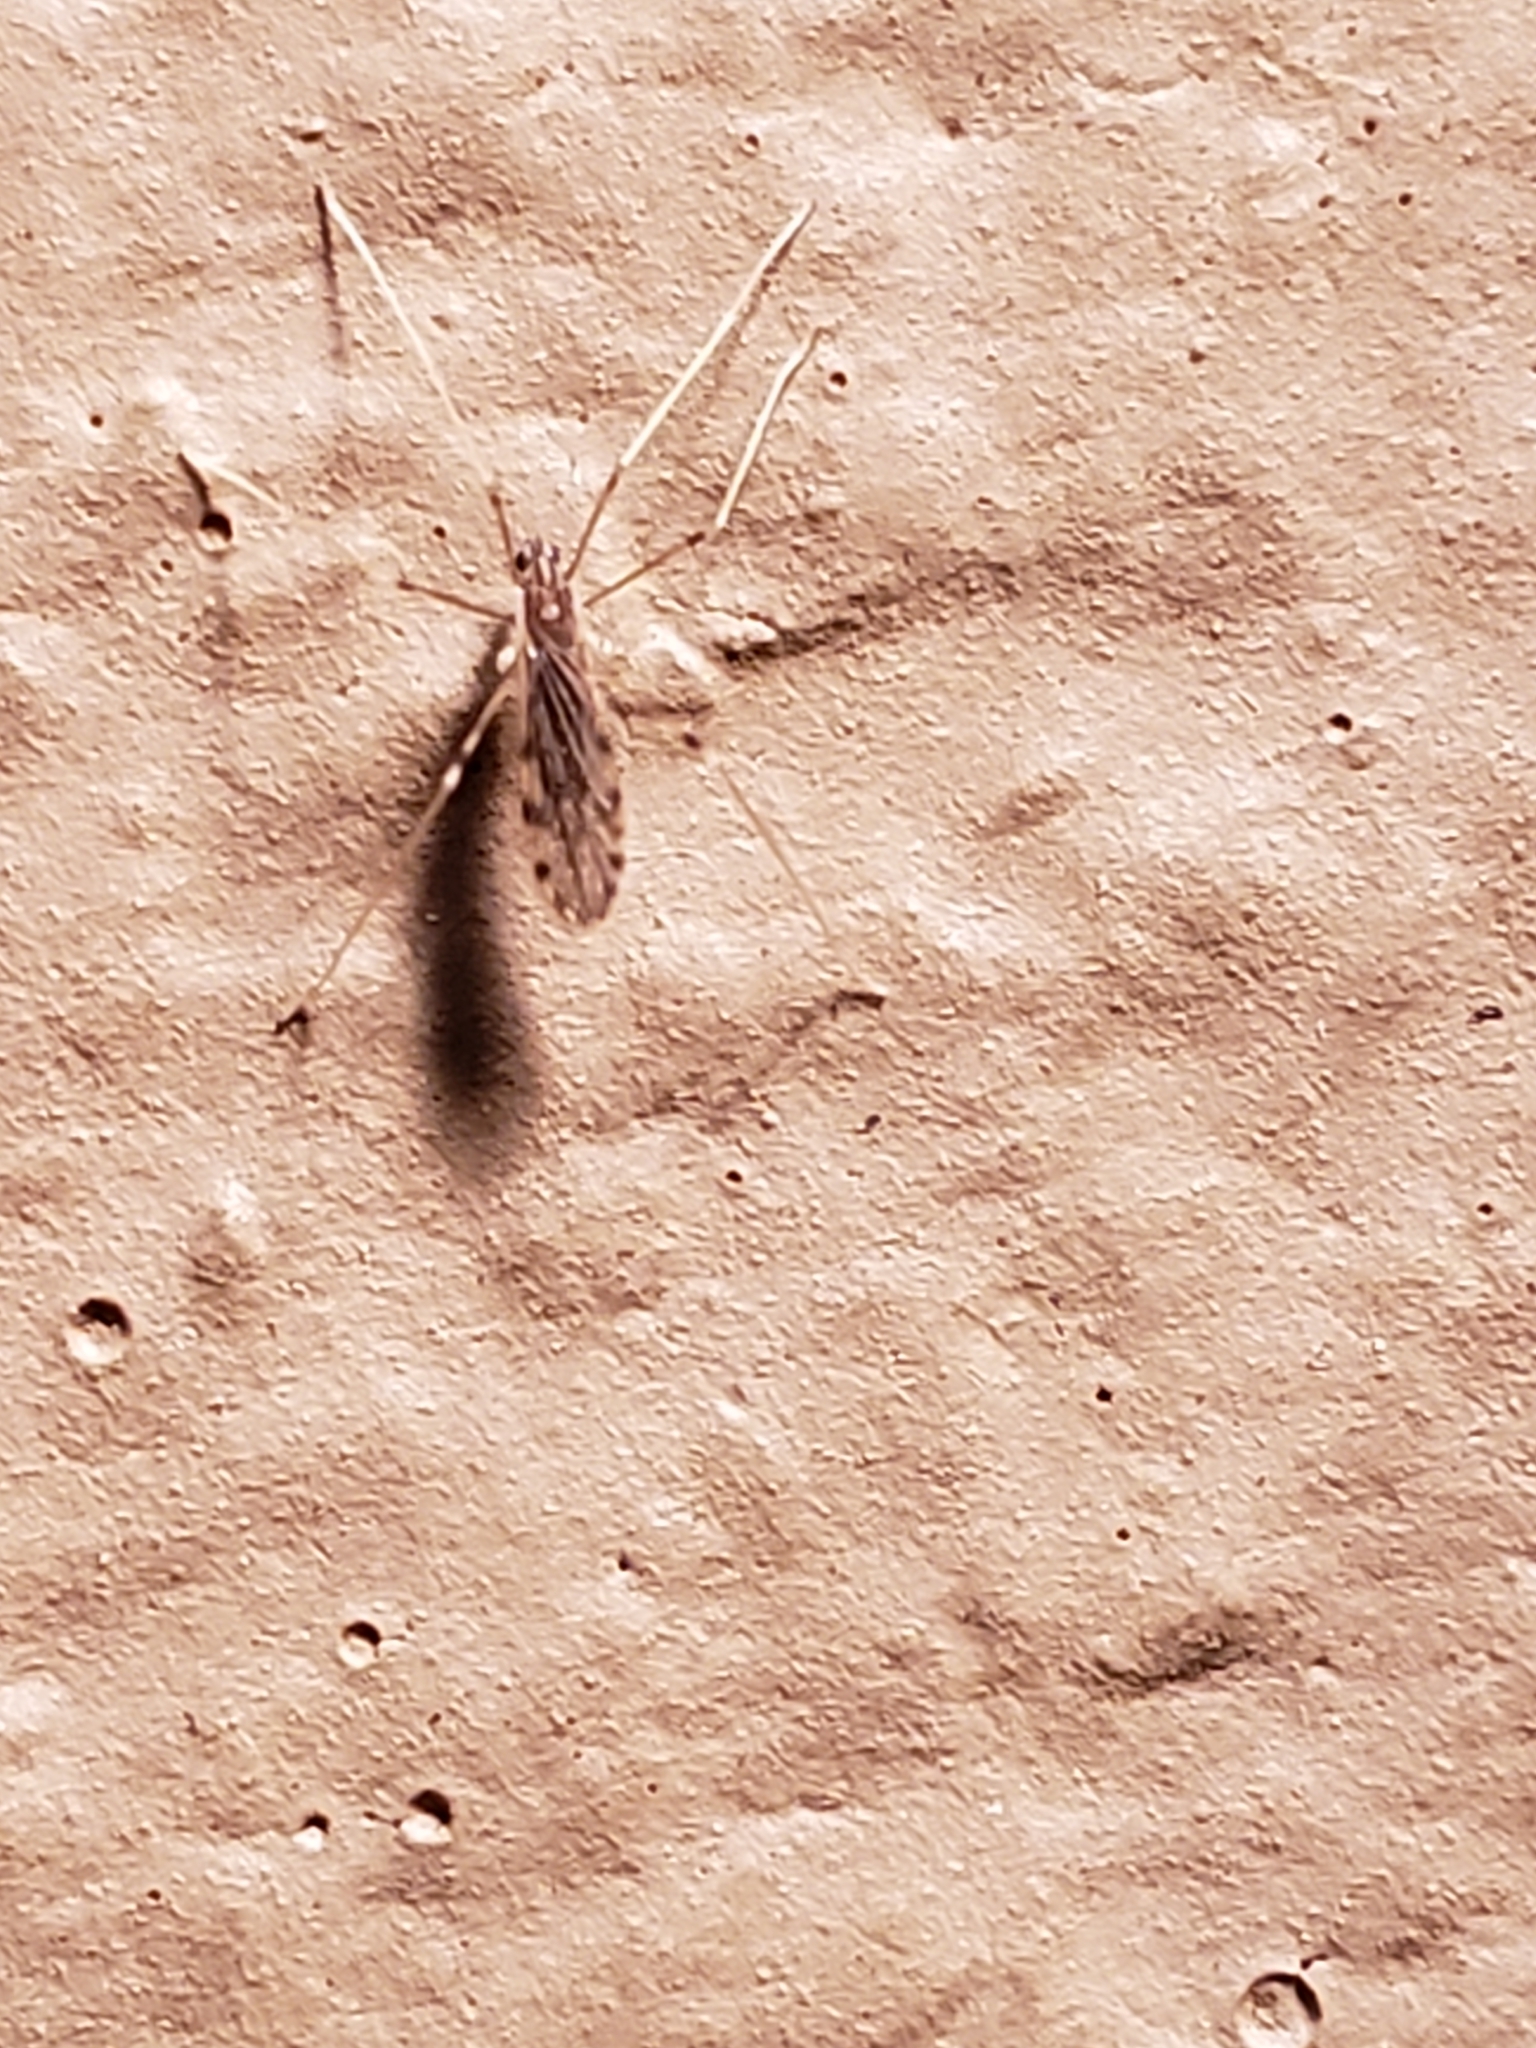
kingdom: Animalia
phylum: Arthropoda
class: Insecta
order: Diptera
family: Limoniidae
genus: Erioptera
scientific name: Erioptera parva
